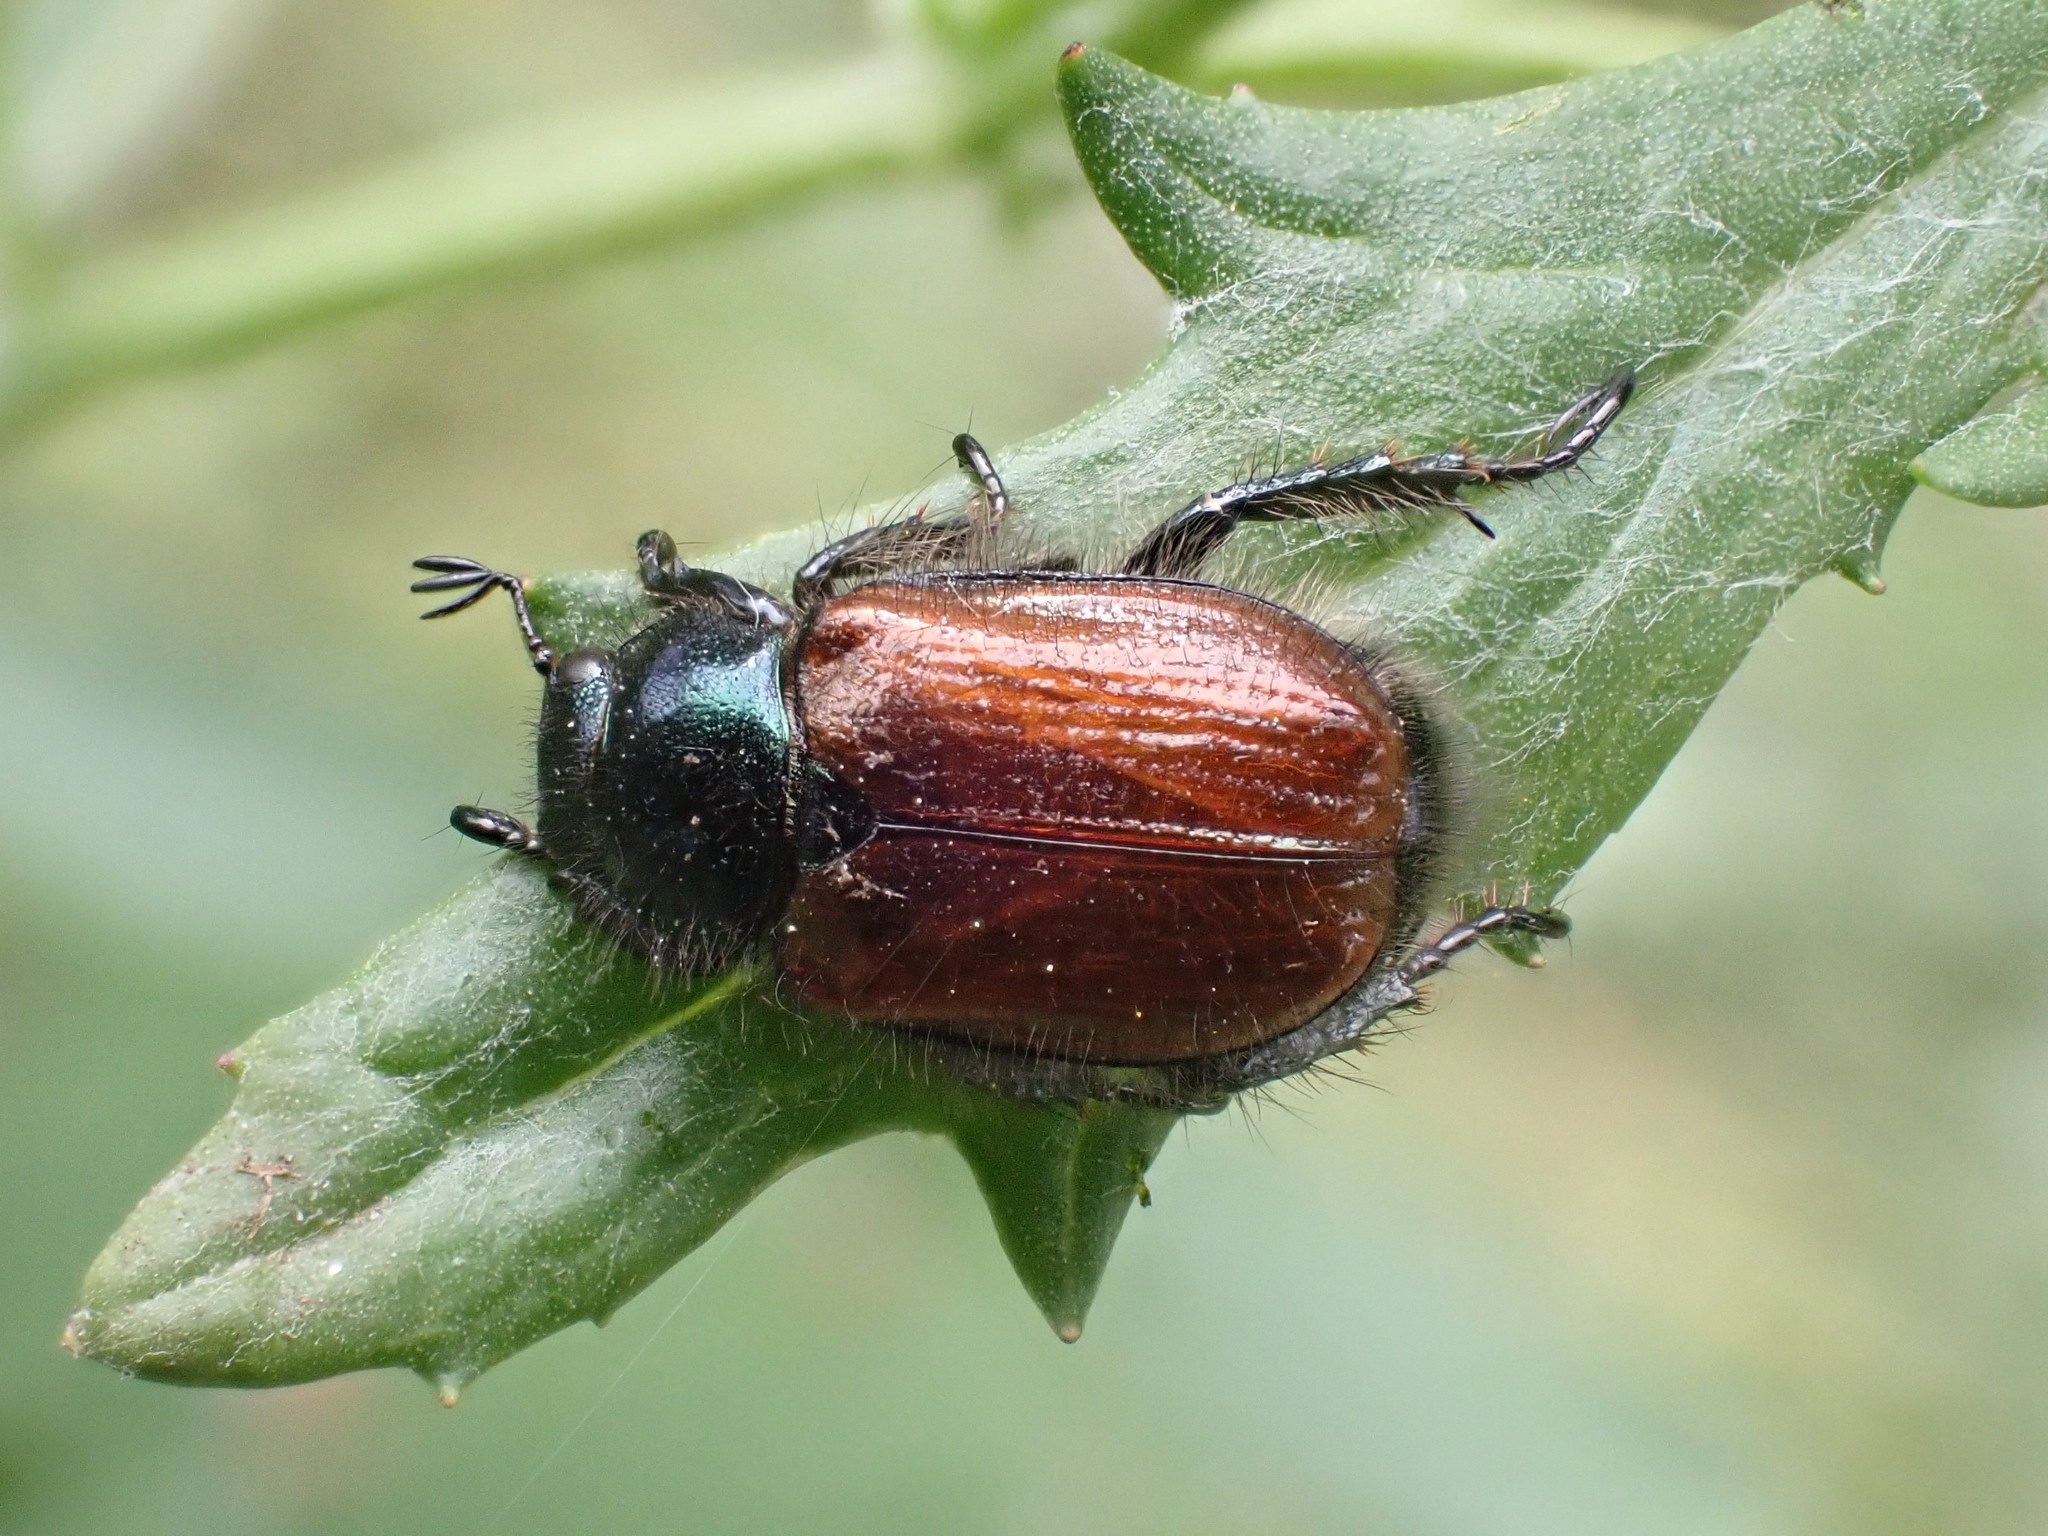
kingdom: Animalia
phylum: Arthropoda
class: Insecta
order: Coleoptera
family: Scarabaeidae
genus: Phyllopertha
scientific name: Phyllopertha horticola
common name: Garden chafer
